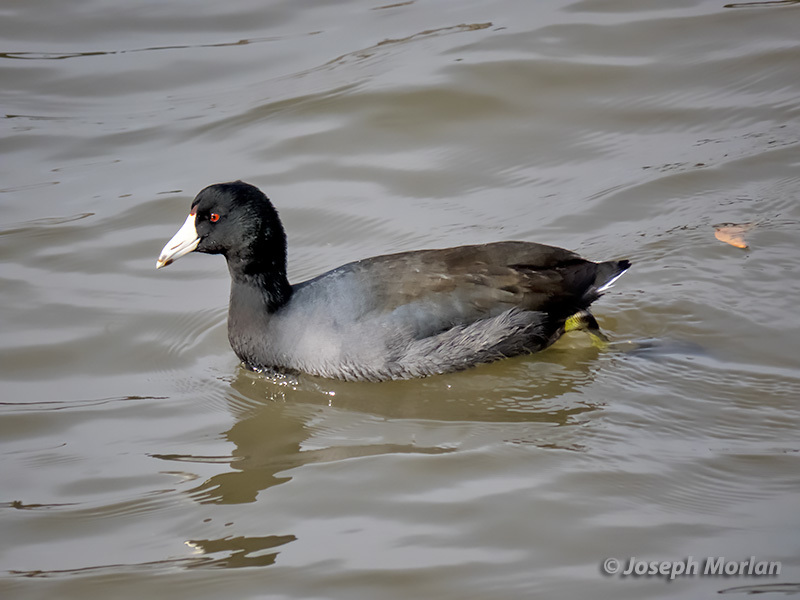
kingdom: Animalia
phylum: Chordata
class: Aves
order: Gruiformes
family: Rallidae
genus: Fulica
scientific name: Fulica americana
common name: American coot
